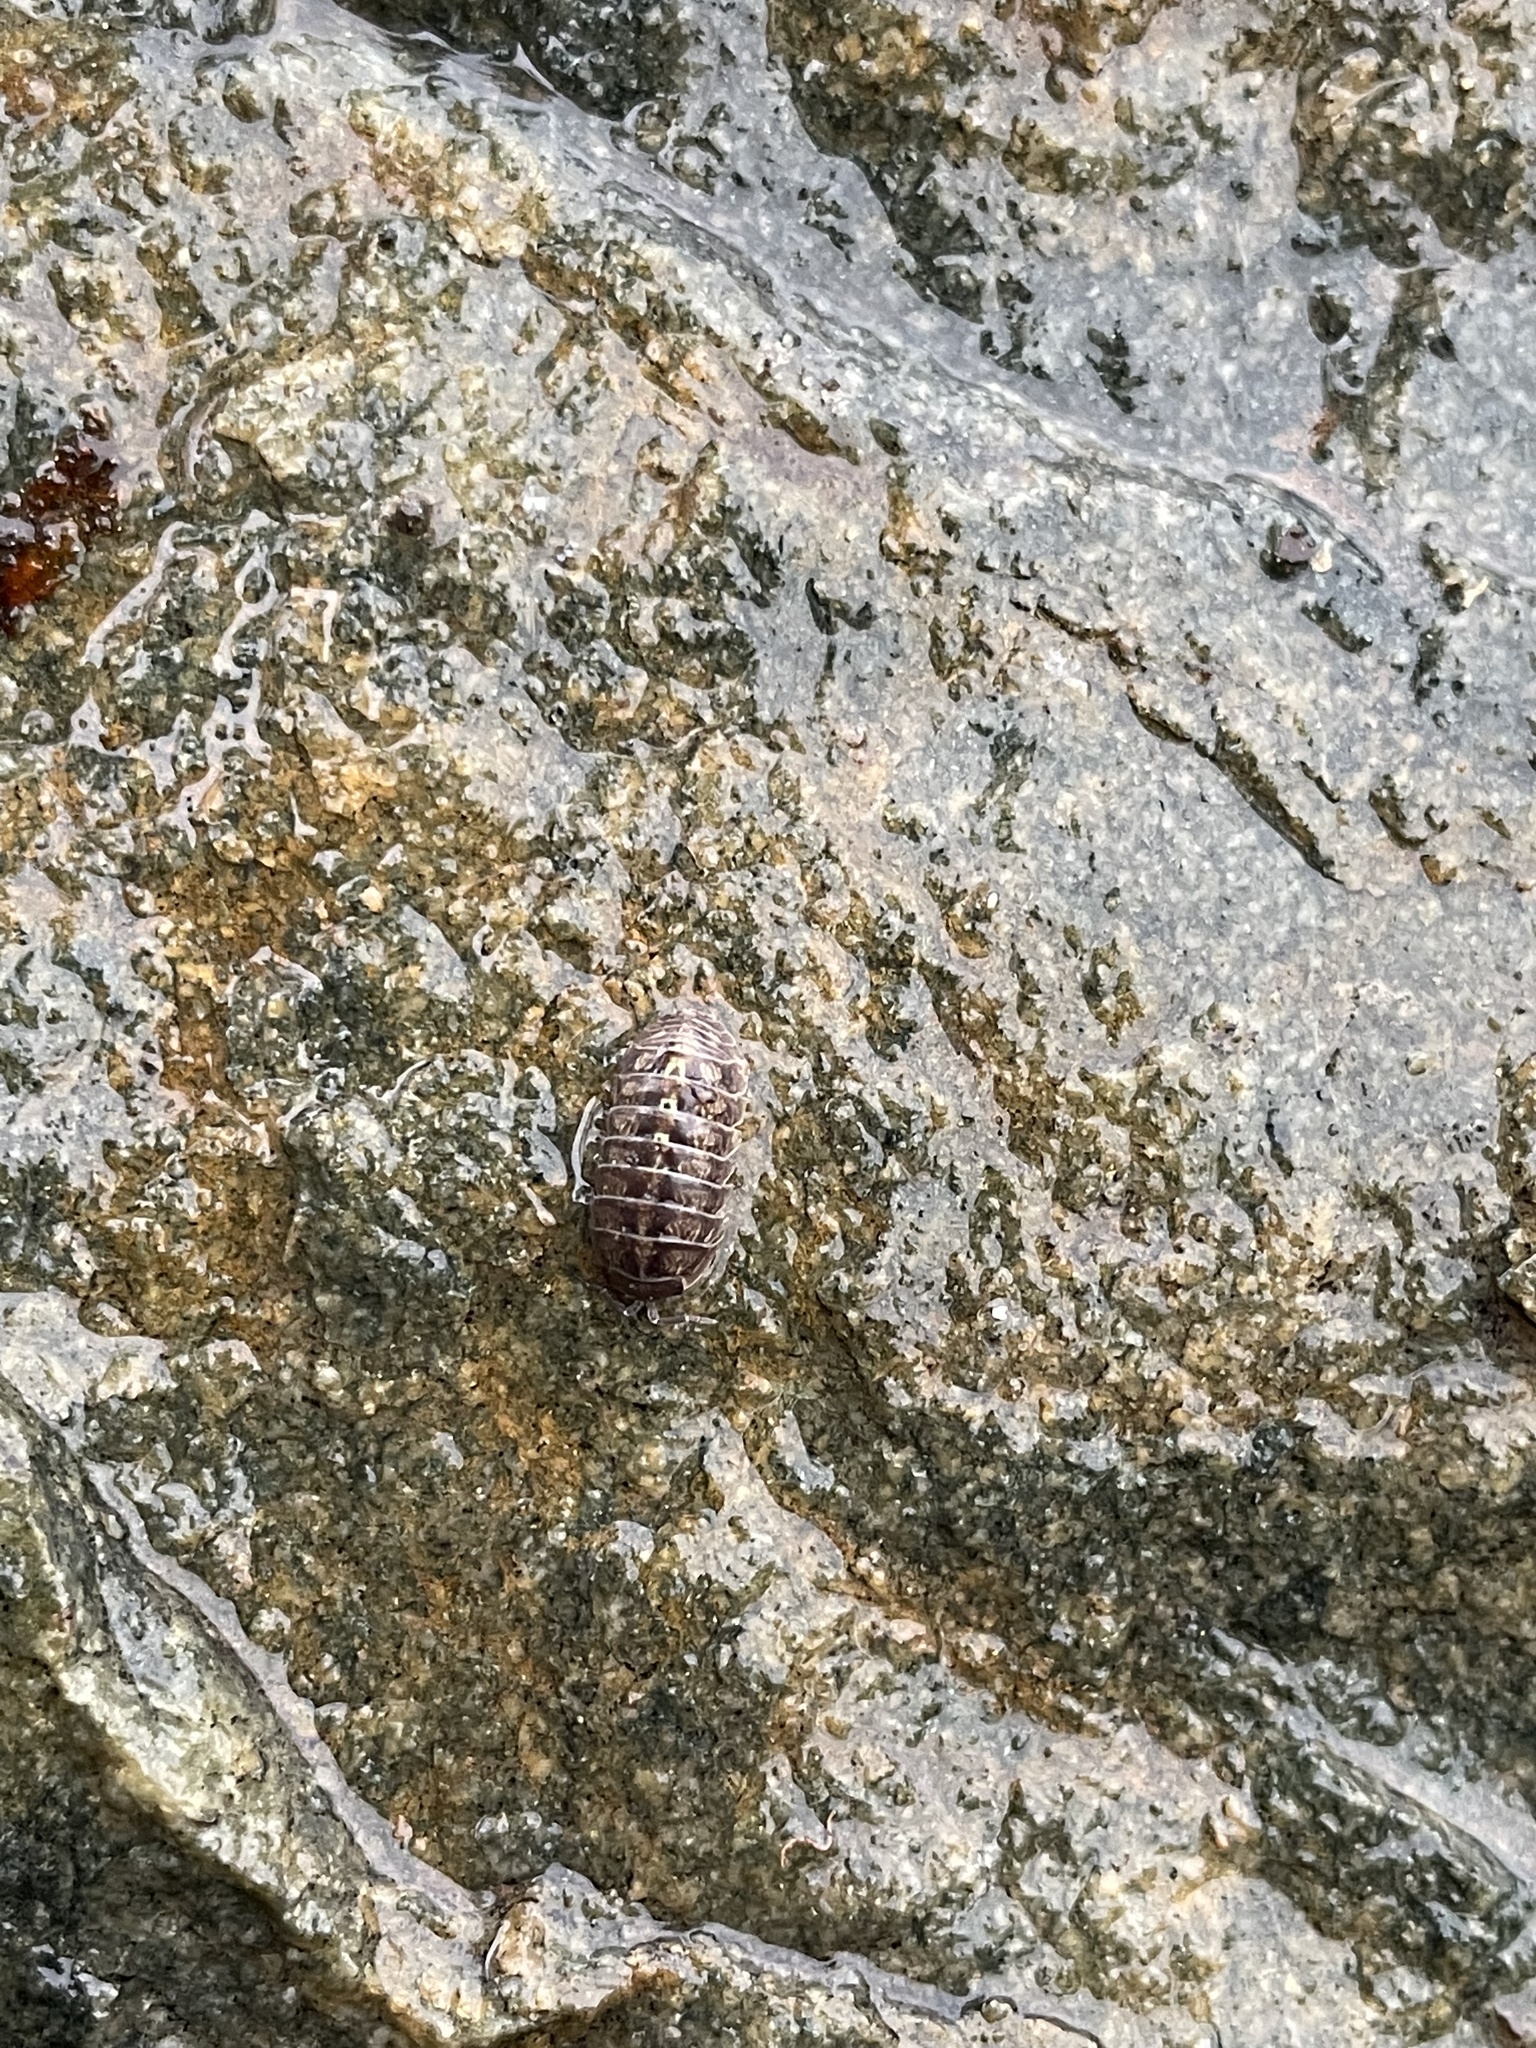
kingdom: Animalia
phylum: Arthropoda
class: Malacostraca
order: Isopoda
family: Armadillidiidae
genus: Armadillidium
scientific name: Armadillidium vulgare
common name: Common pill woodlouse
